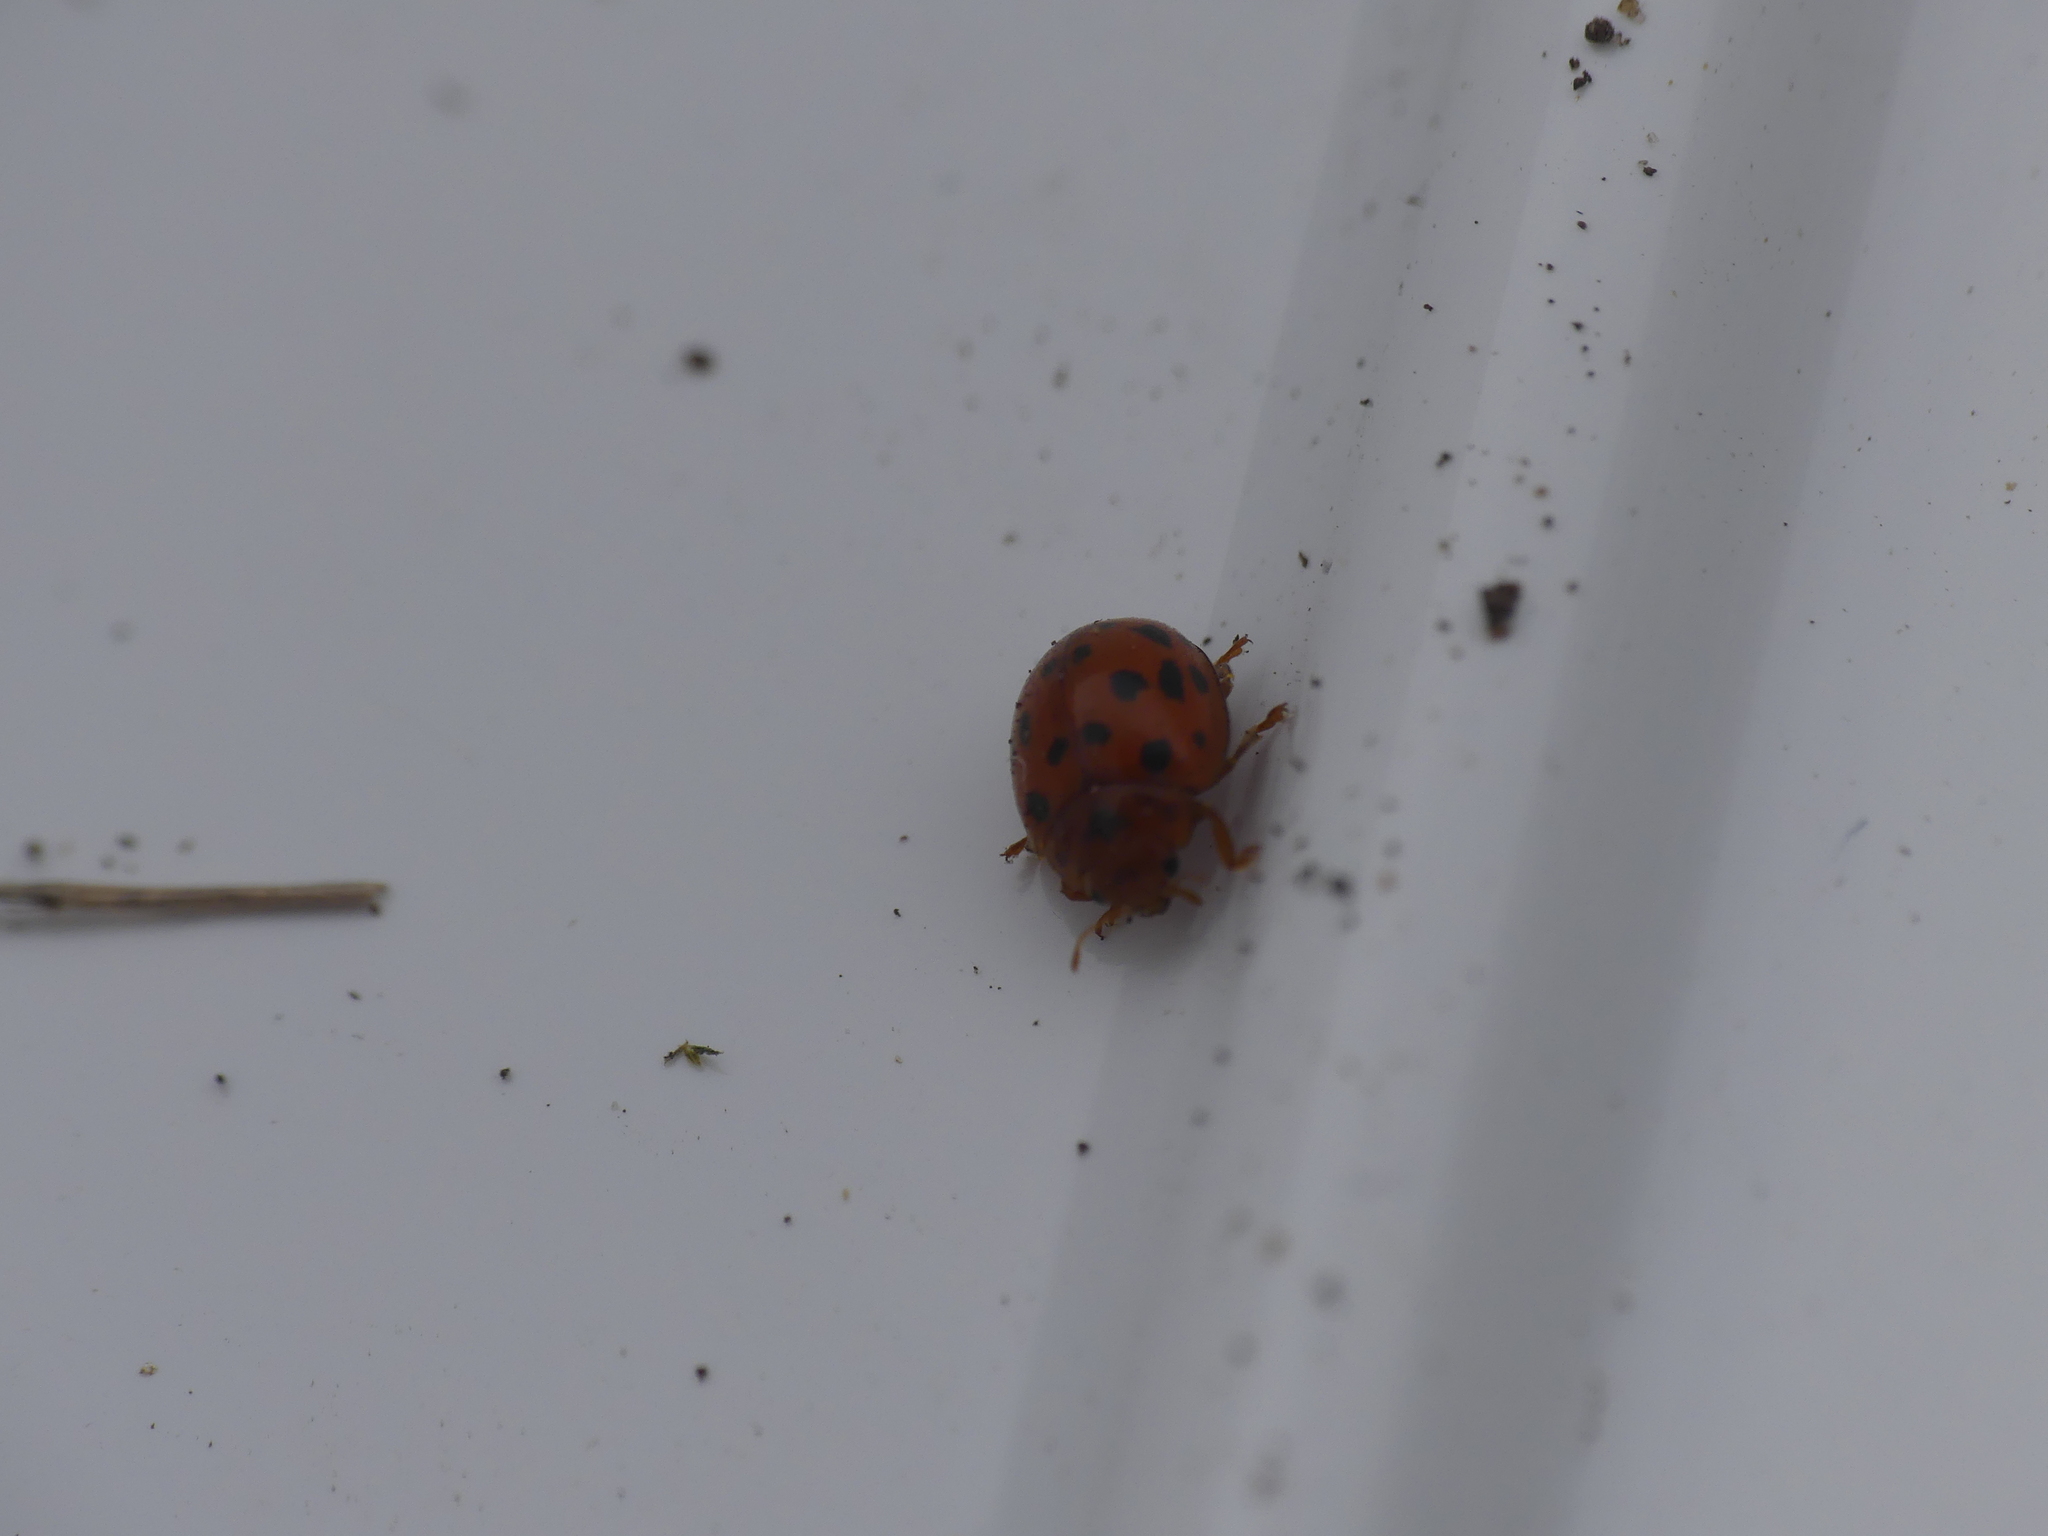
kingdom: Animalia
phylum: Arthropoda
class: Insecta
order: Coleoptera
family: Coccinellidae
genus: Subcoccinella
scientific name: Subcoccinella vigintiquatuorpunctata
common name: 24-spot ladybird
